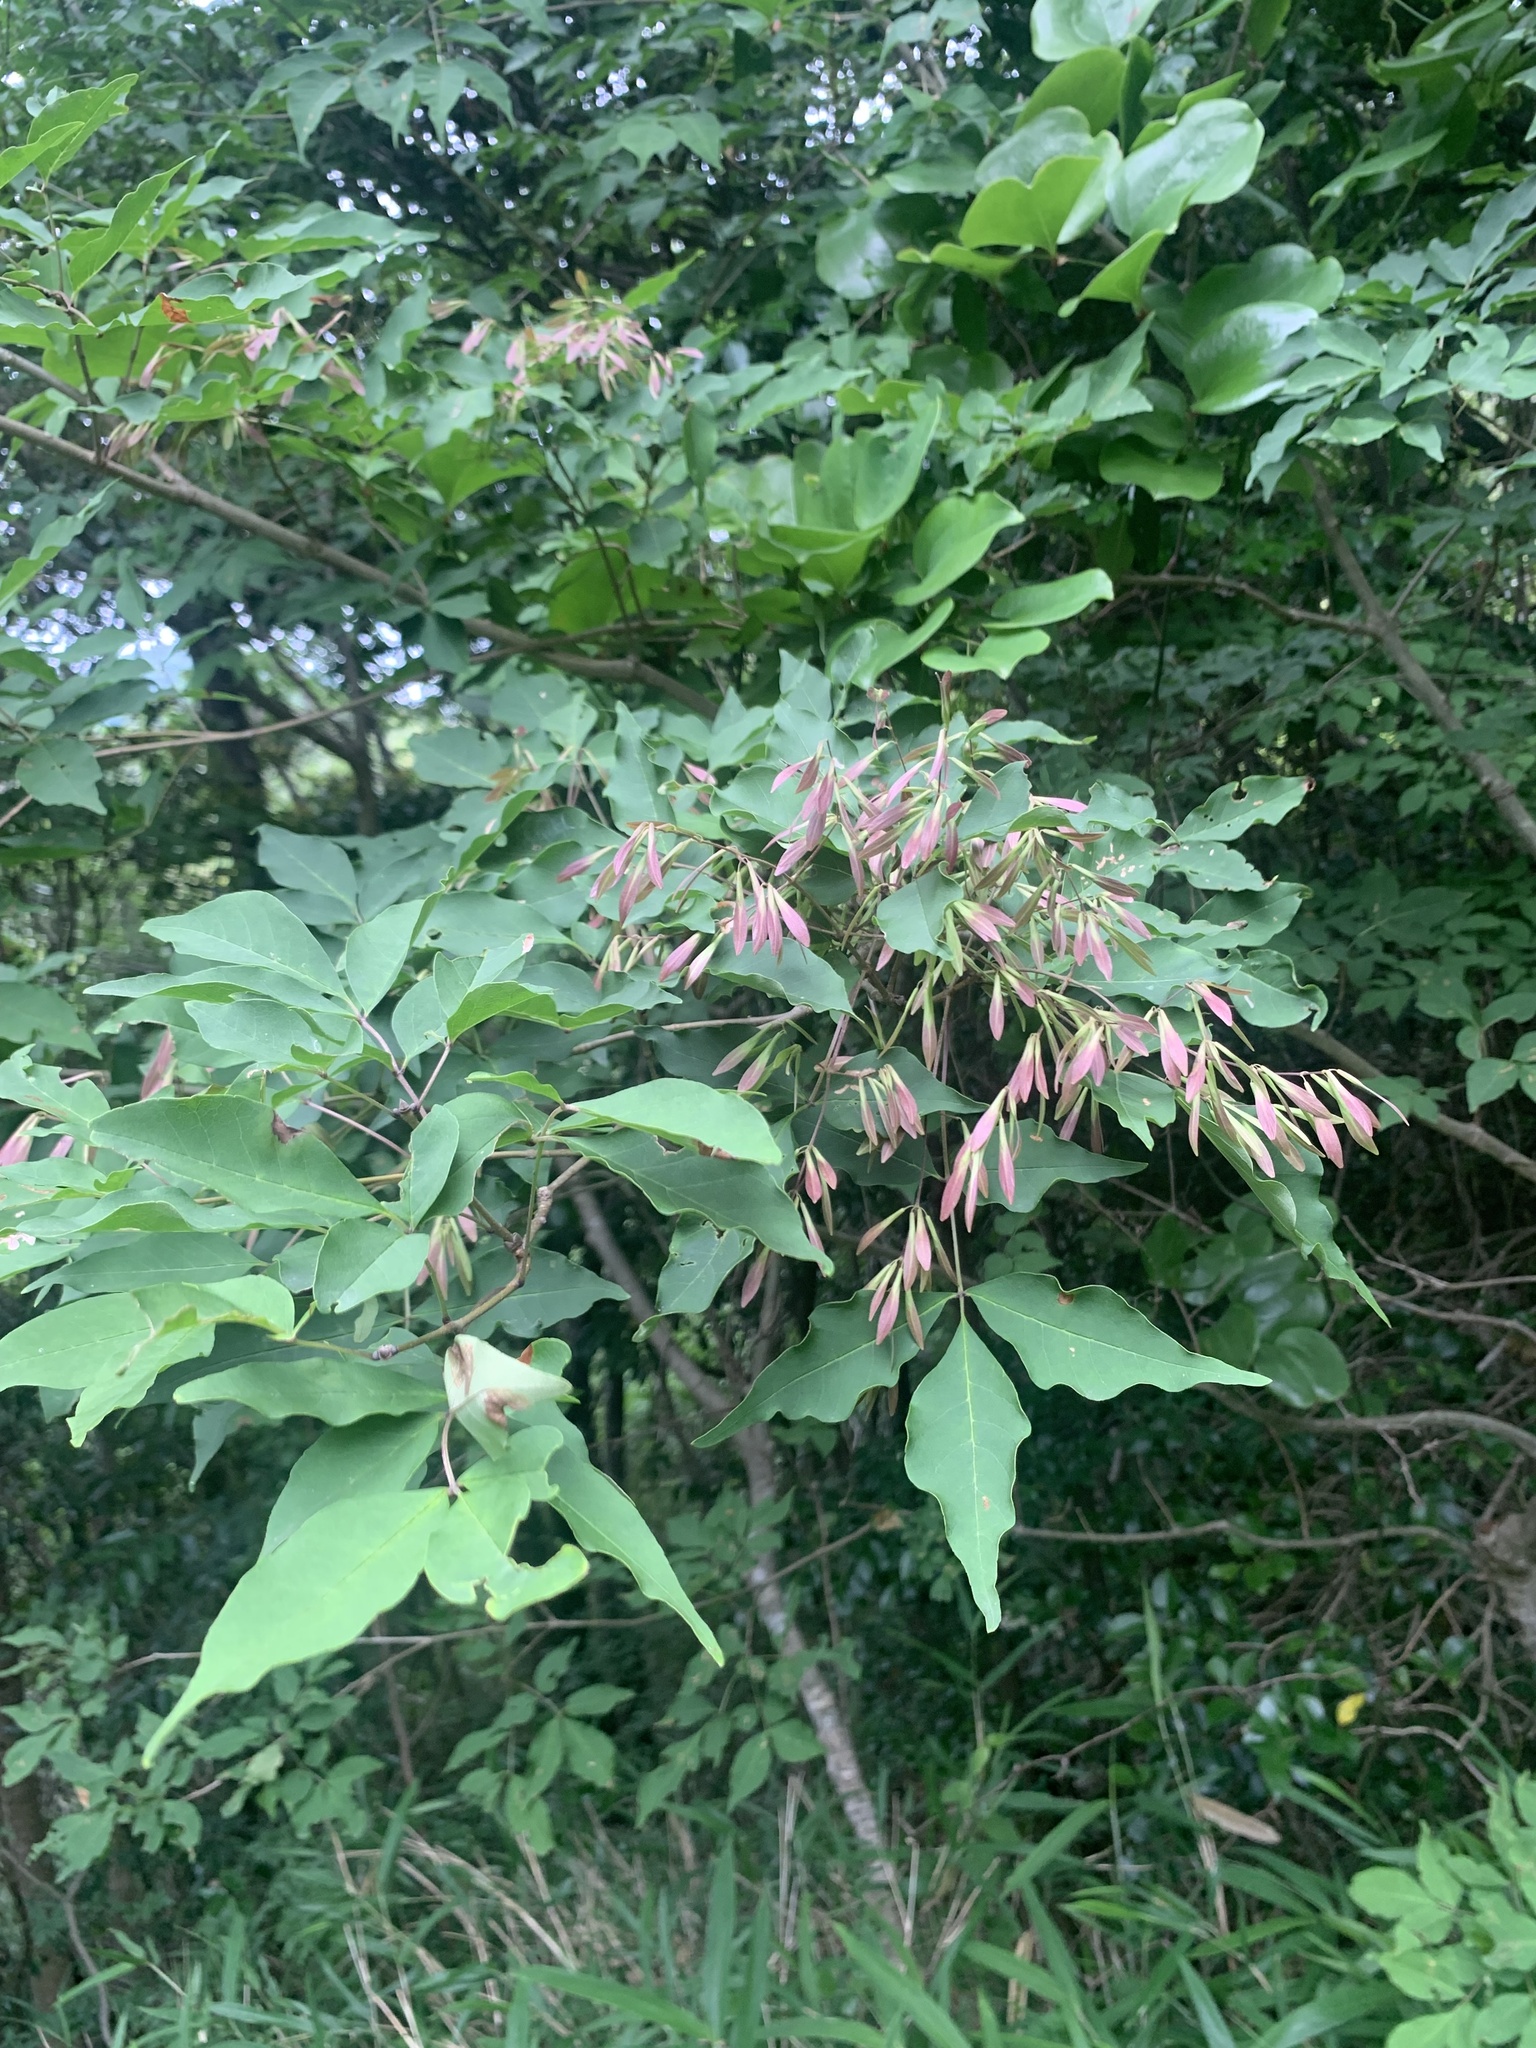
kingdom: Plantae
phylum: Tracheophyta
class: Magnoliopsida
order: Lamiales
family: Oleaceae
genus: Fraxinus
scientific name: Fraxinus sieboldiana
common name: Chinese flowering ash
